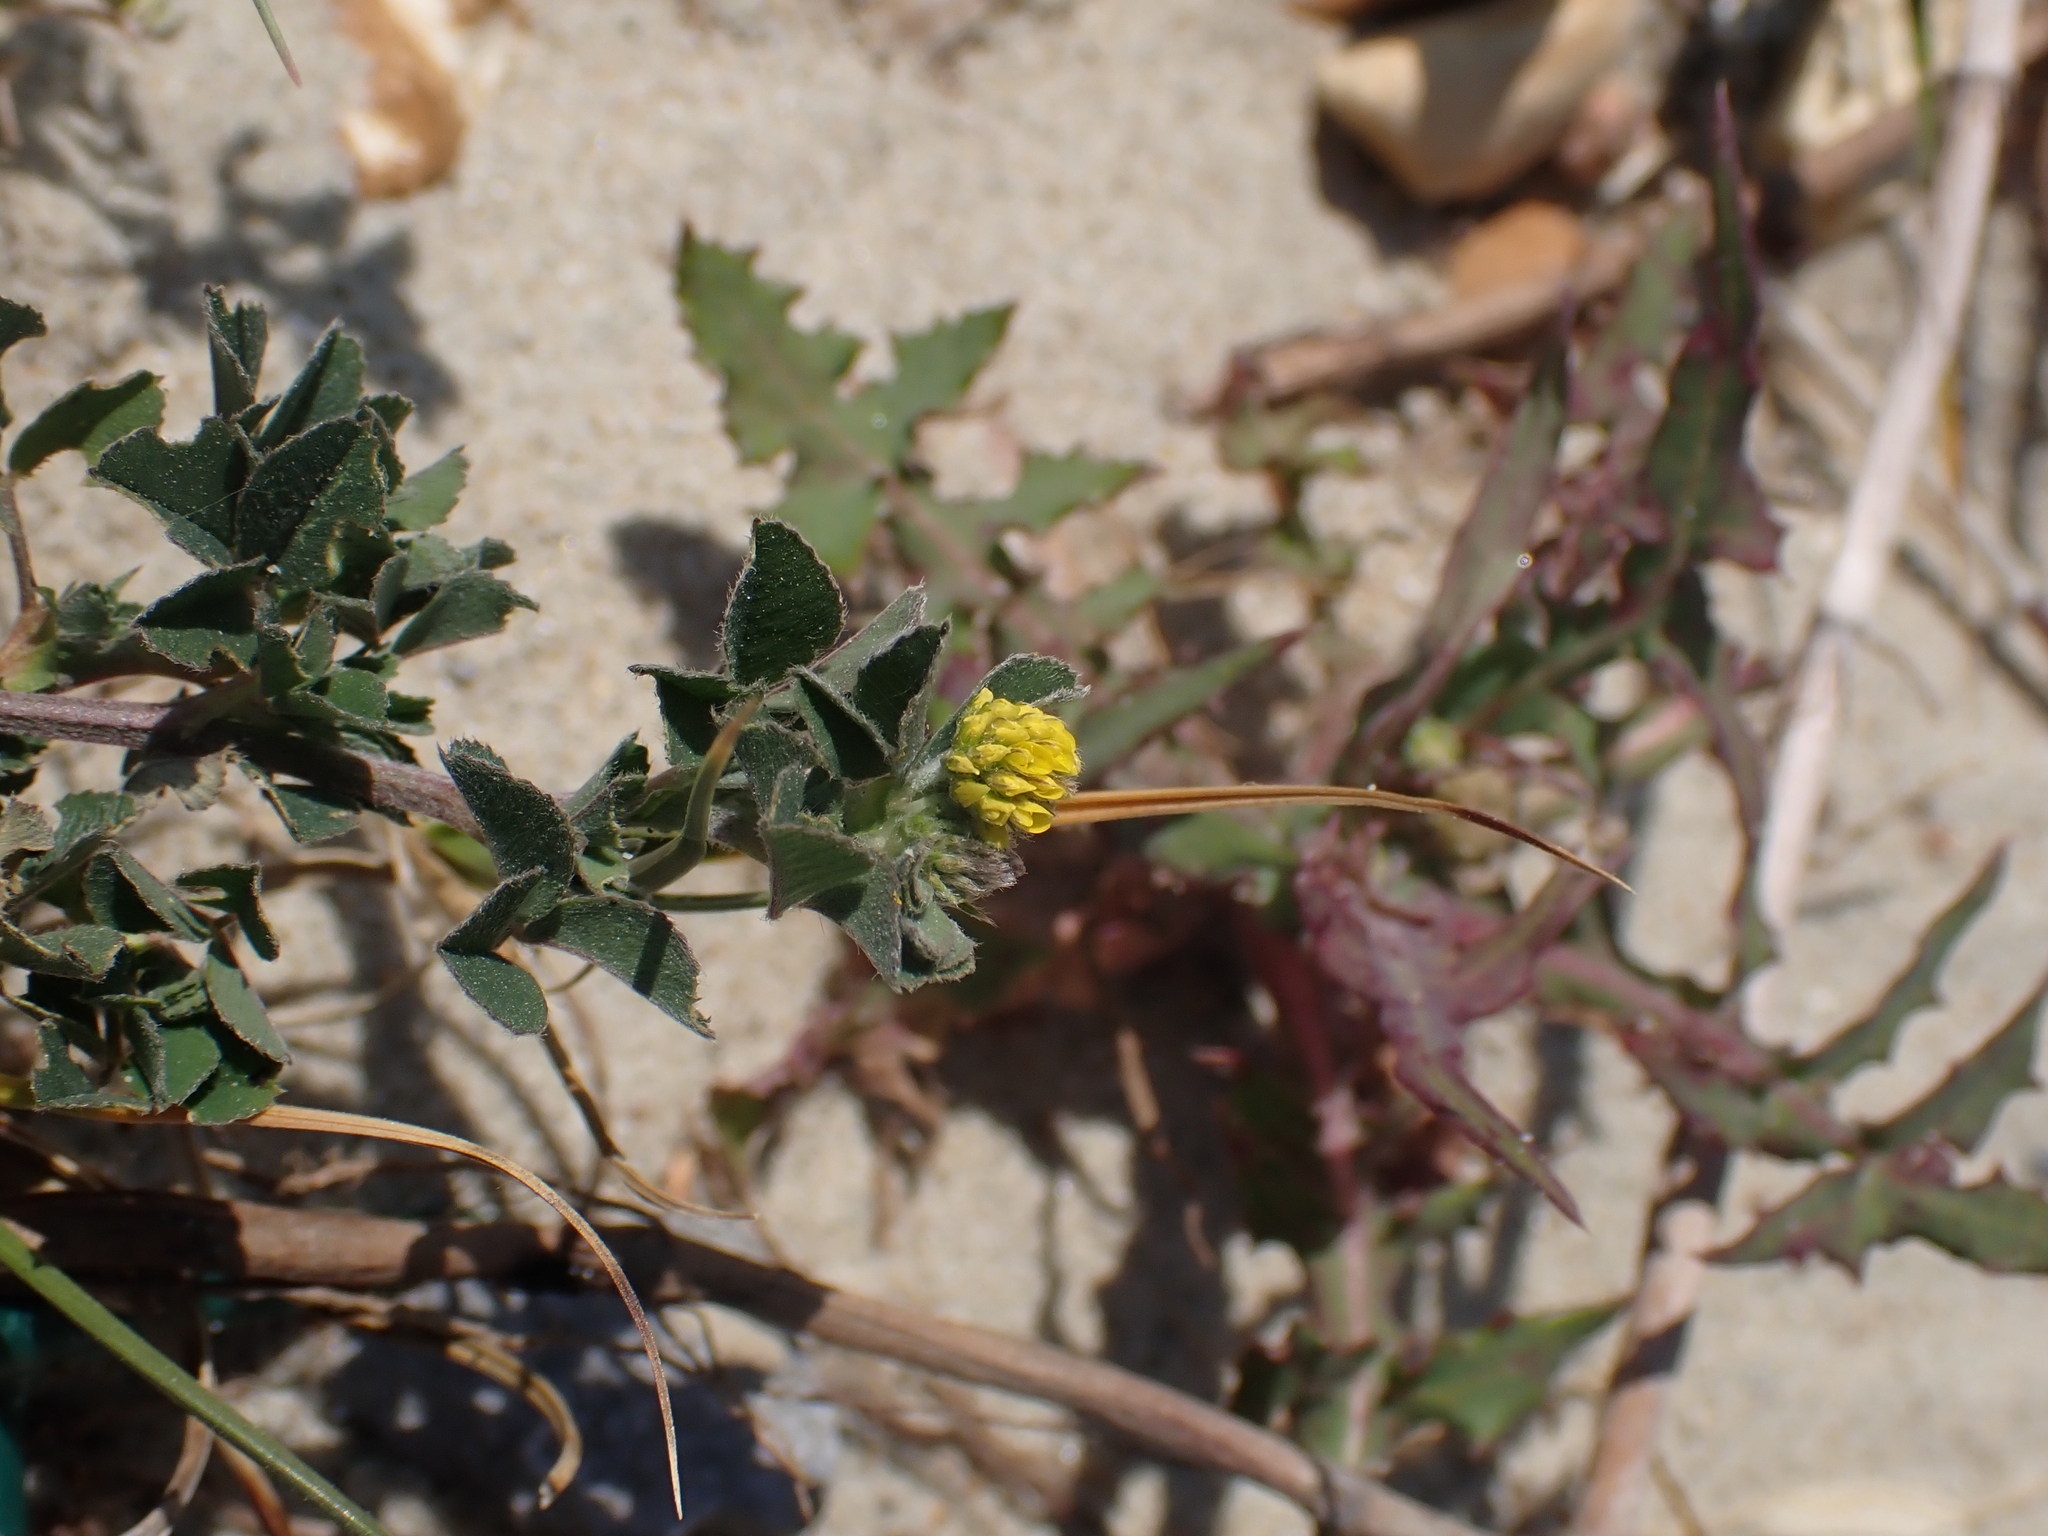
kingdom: Plantae
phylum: Tracheophyta
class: Magnoliopsida
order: Fabales
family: Fabaceae
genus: Medicago
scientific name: Medicago lupulina
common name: Black medick
